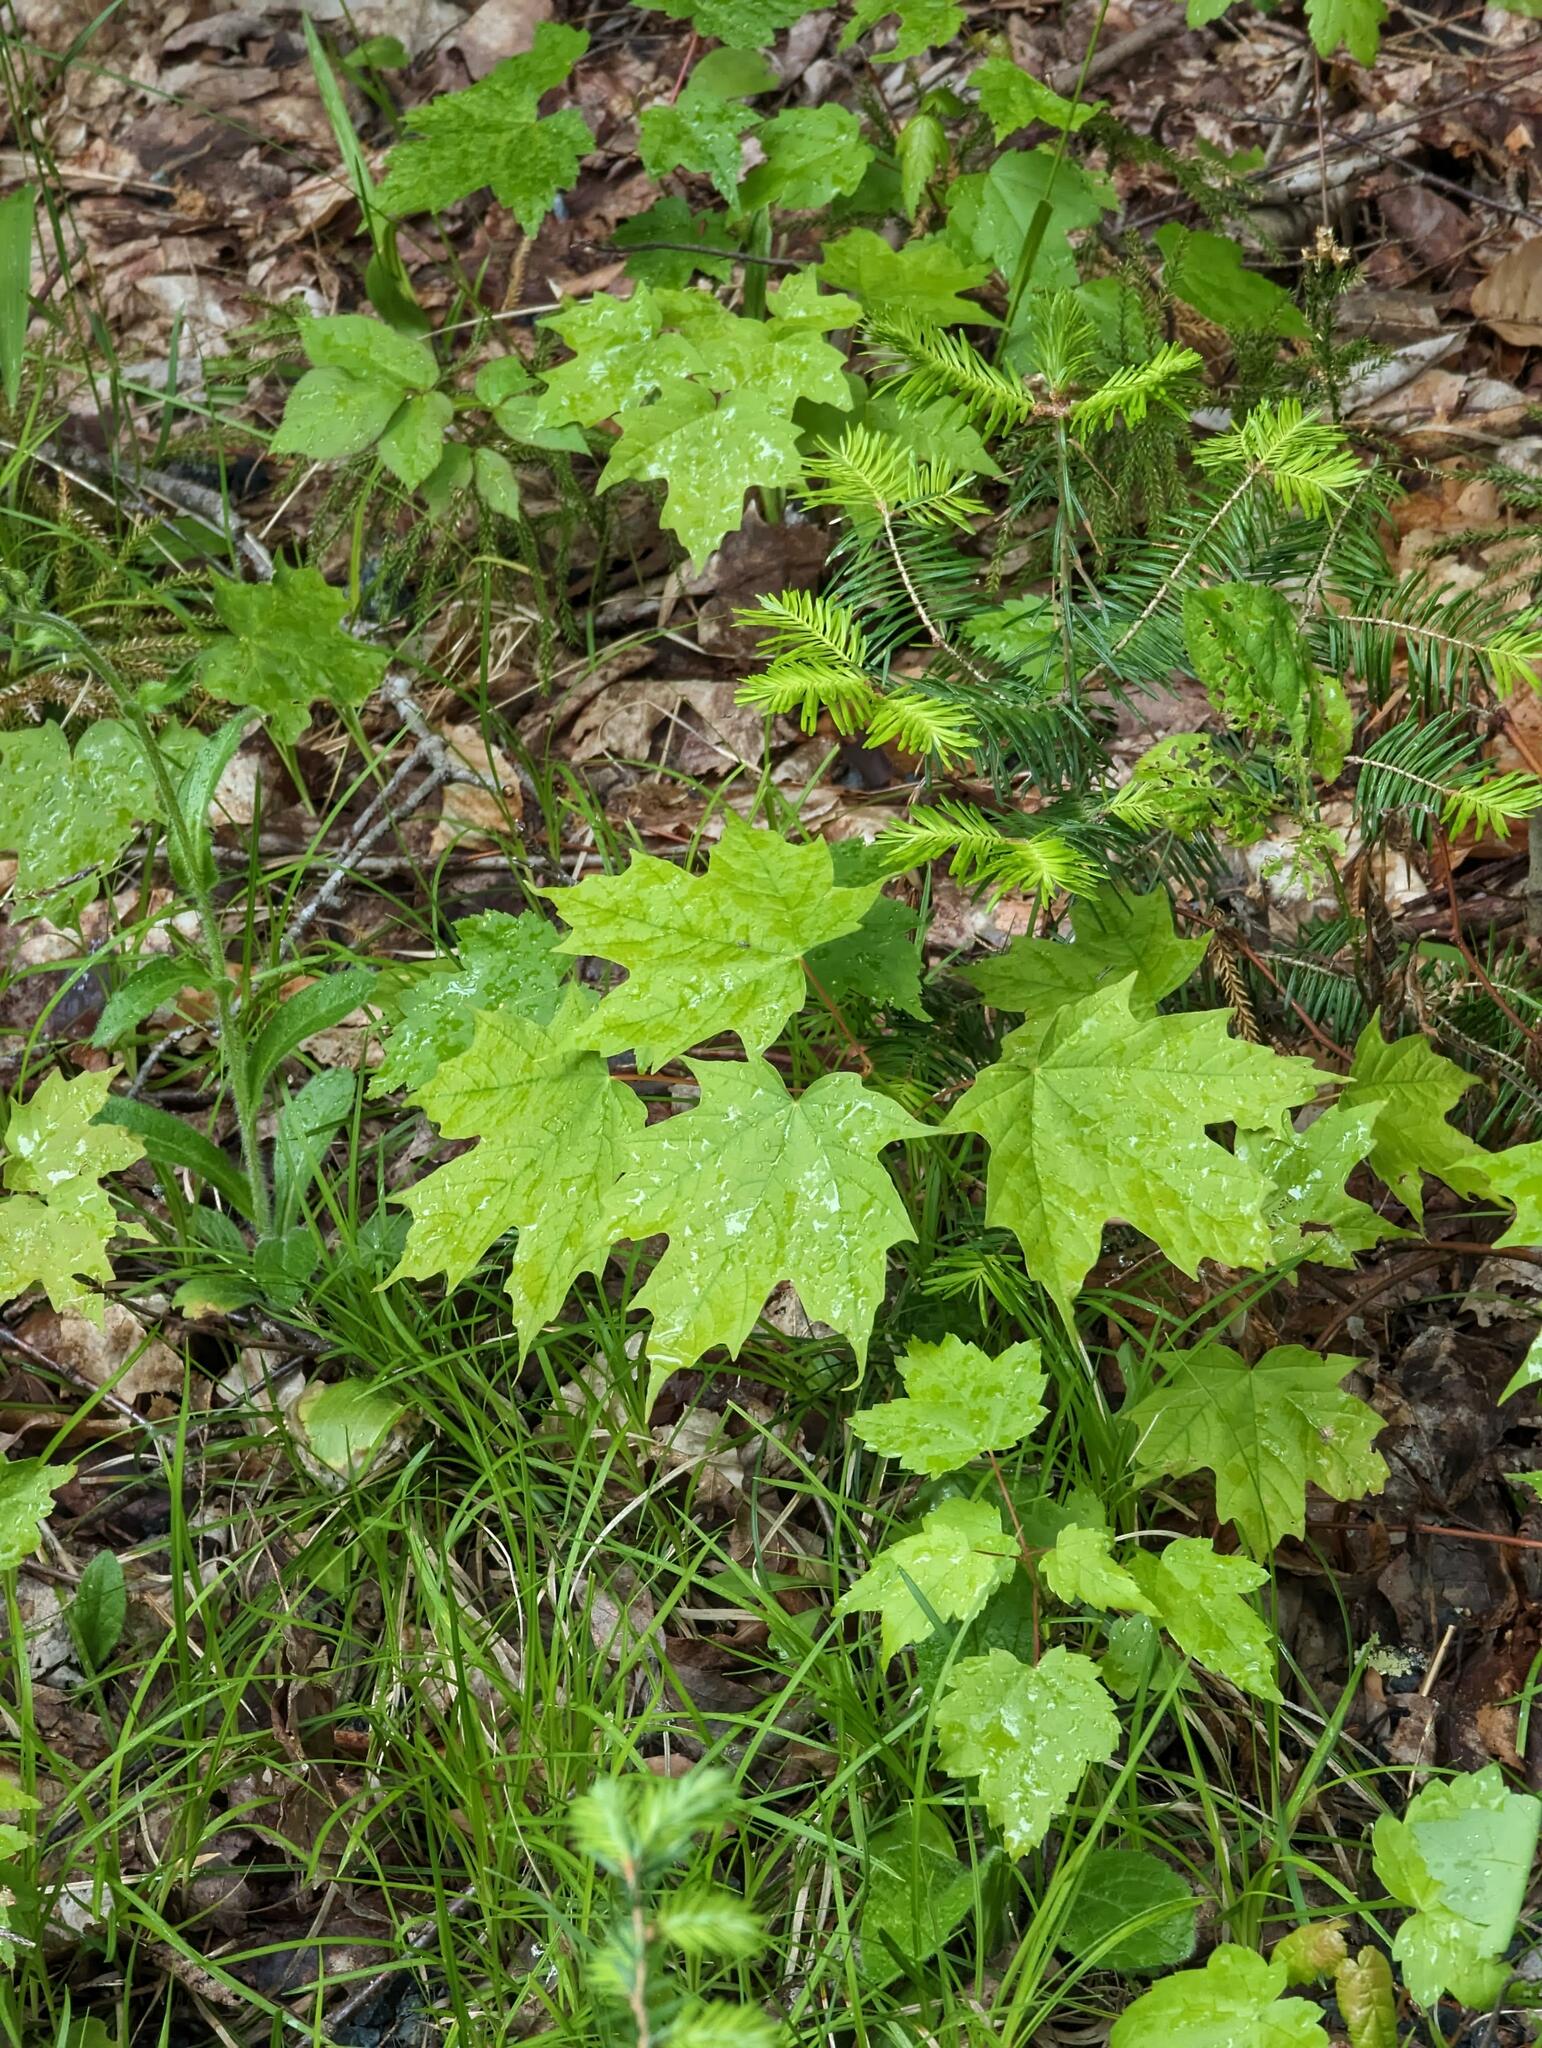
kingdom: Plantae
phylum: Tracheophyta
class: Magnoliopsida
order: Sapindales
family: Sapindaceae
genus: Acer
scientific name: Acer saccharum
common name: Sugar maple
